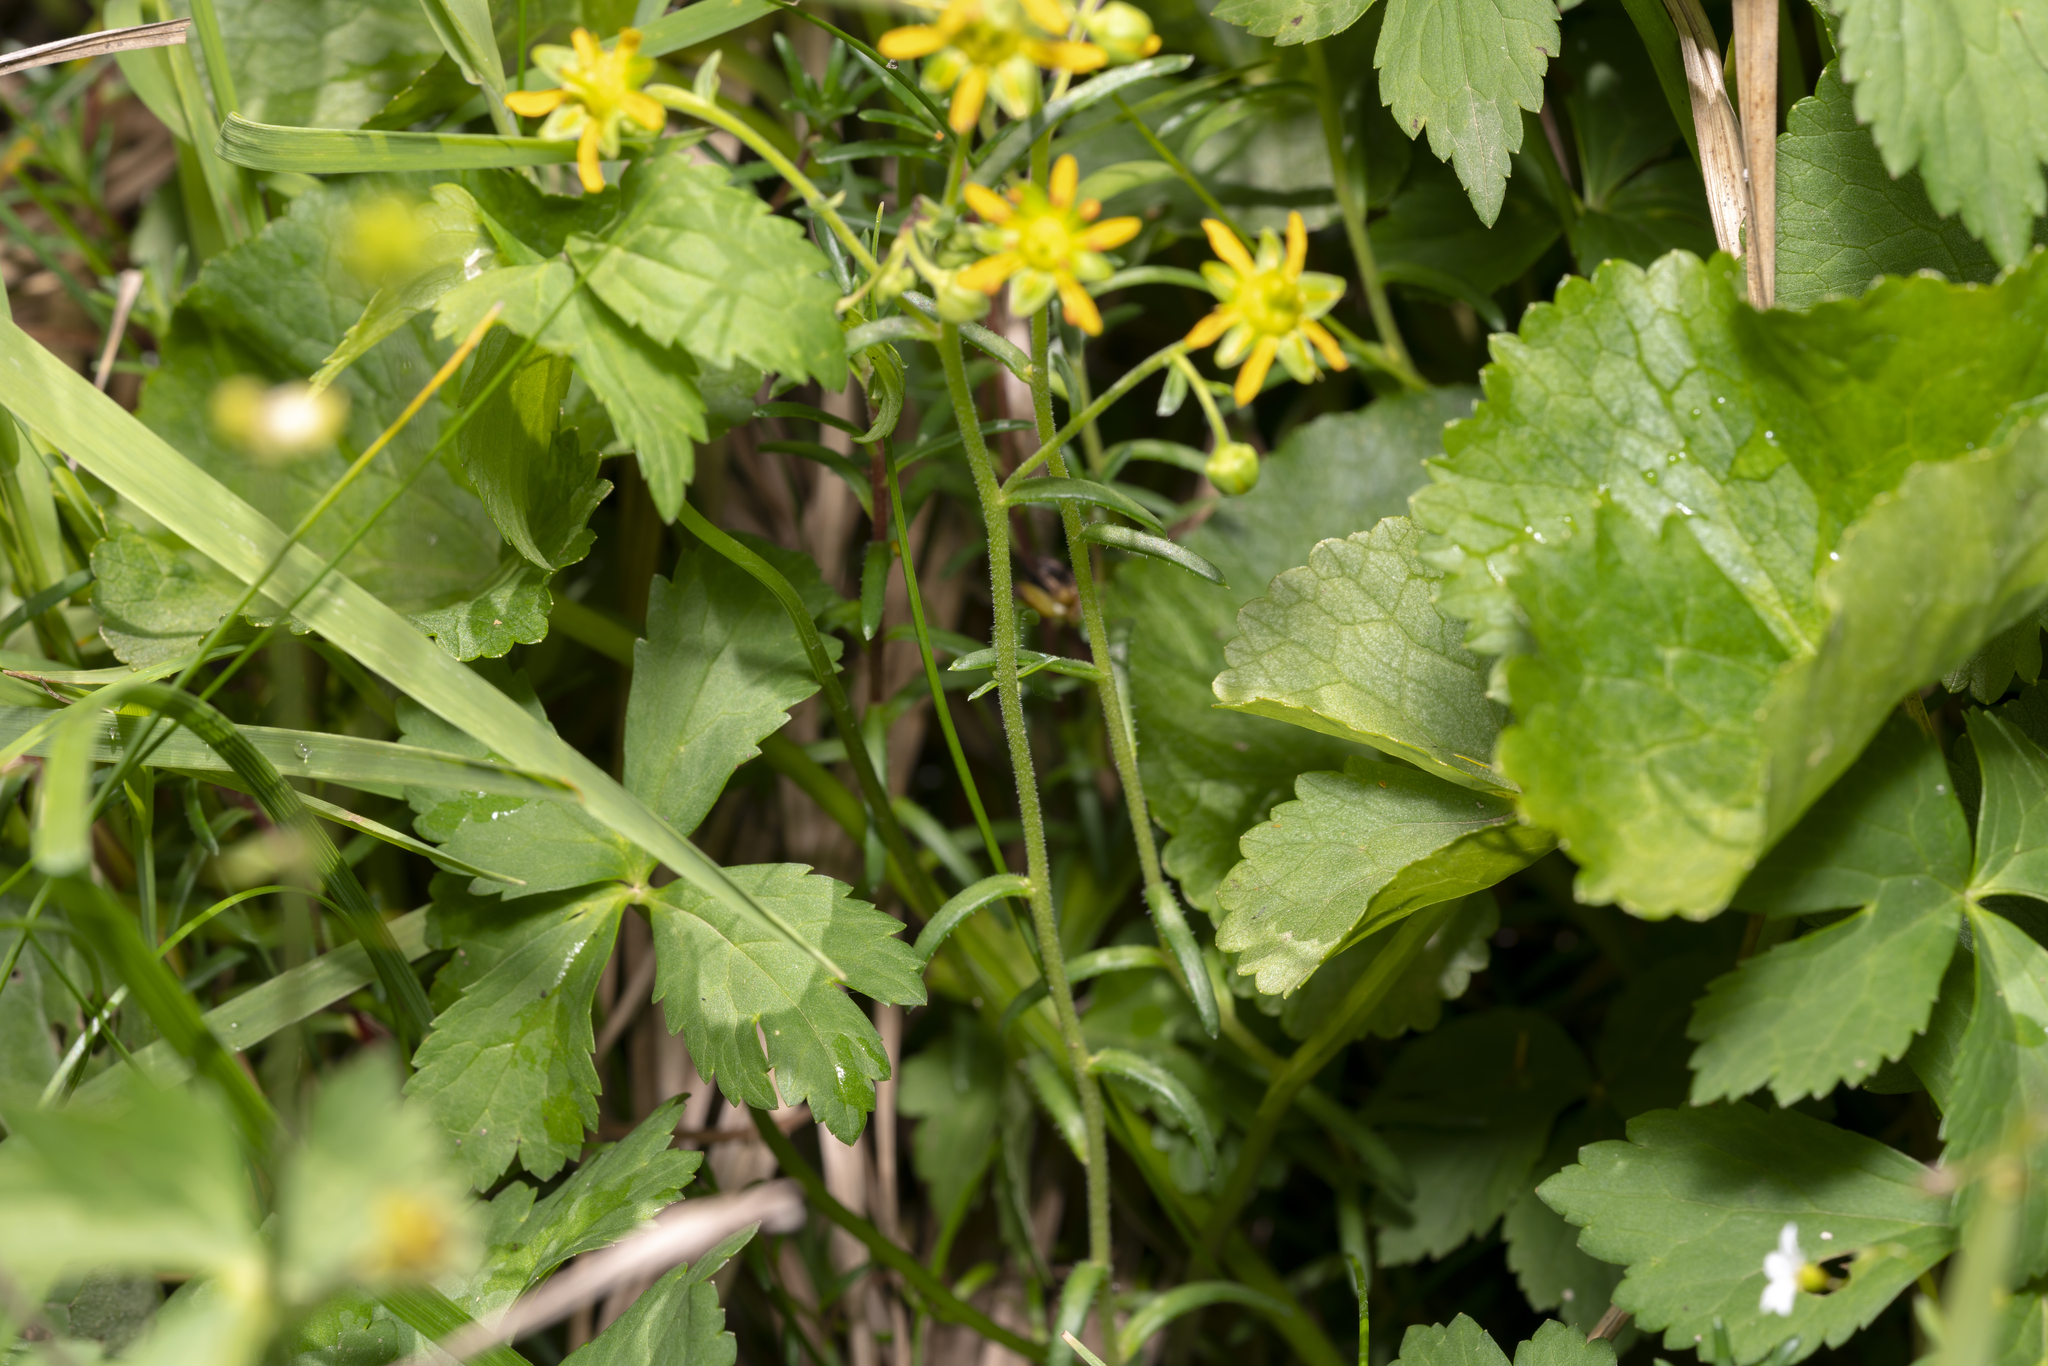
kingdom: Plantae
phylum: Tracheophyta
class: Magnoliopsida
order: Saxifragales
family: Saxifragaceae
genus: Saxifraga
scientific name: Saxifraga aizoides
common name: Yellow mountain saxifrage
